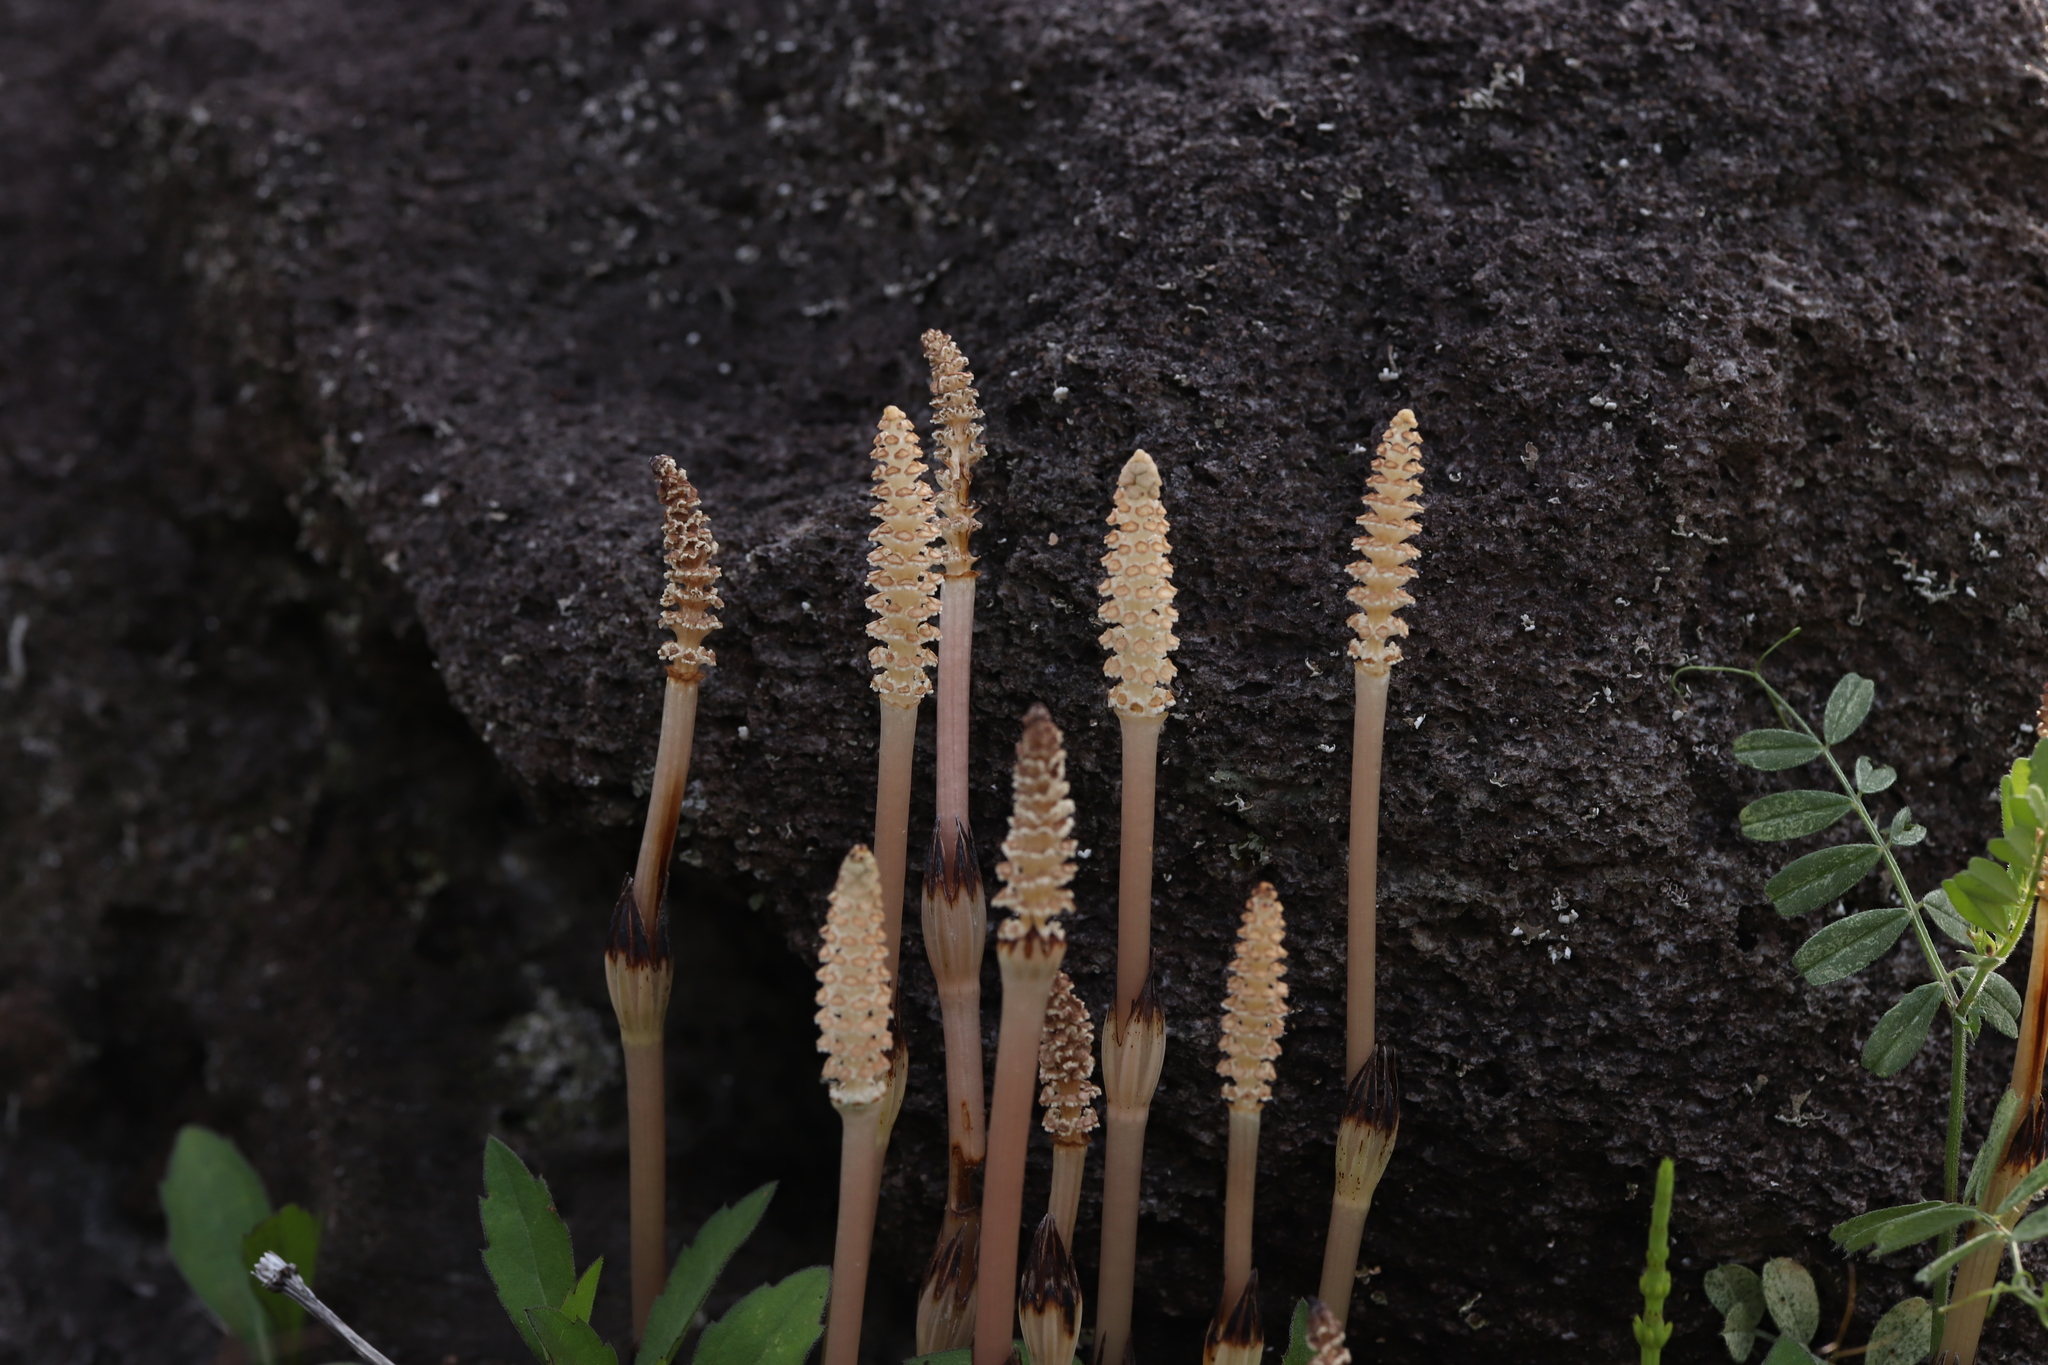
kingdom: Plantae
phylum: Tracheophyta
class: Polypodiopsida
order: Equisetales
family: Equisetaceae
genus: Equisetum
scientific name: Equisetum arvense
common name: Field horsetail
